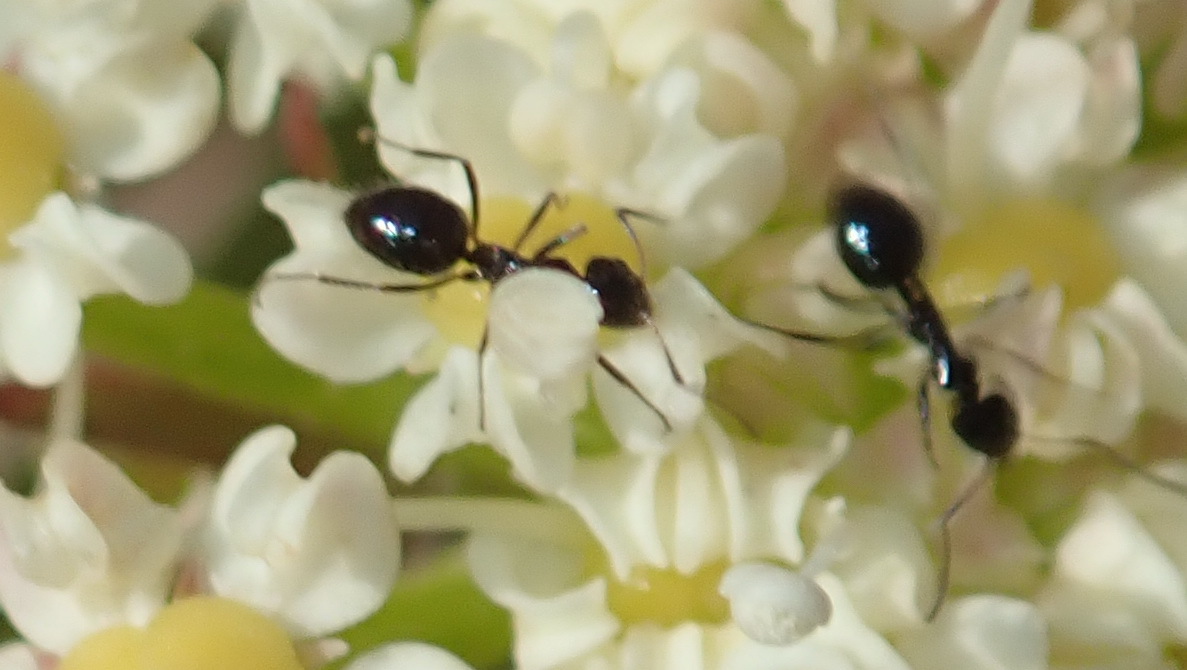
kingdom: Animalia
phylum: Arthropoda
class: Insecta
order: Hymenoptera
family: Formicidae
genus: Lepisiota
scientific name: Lepisiota capensis
